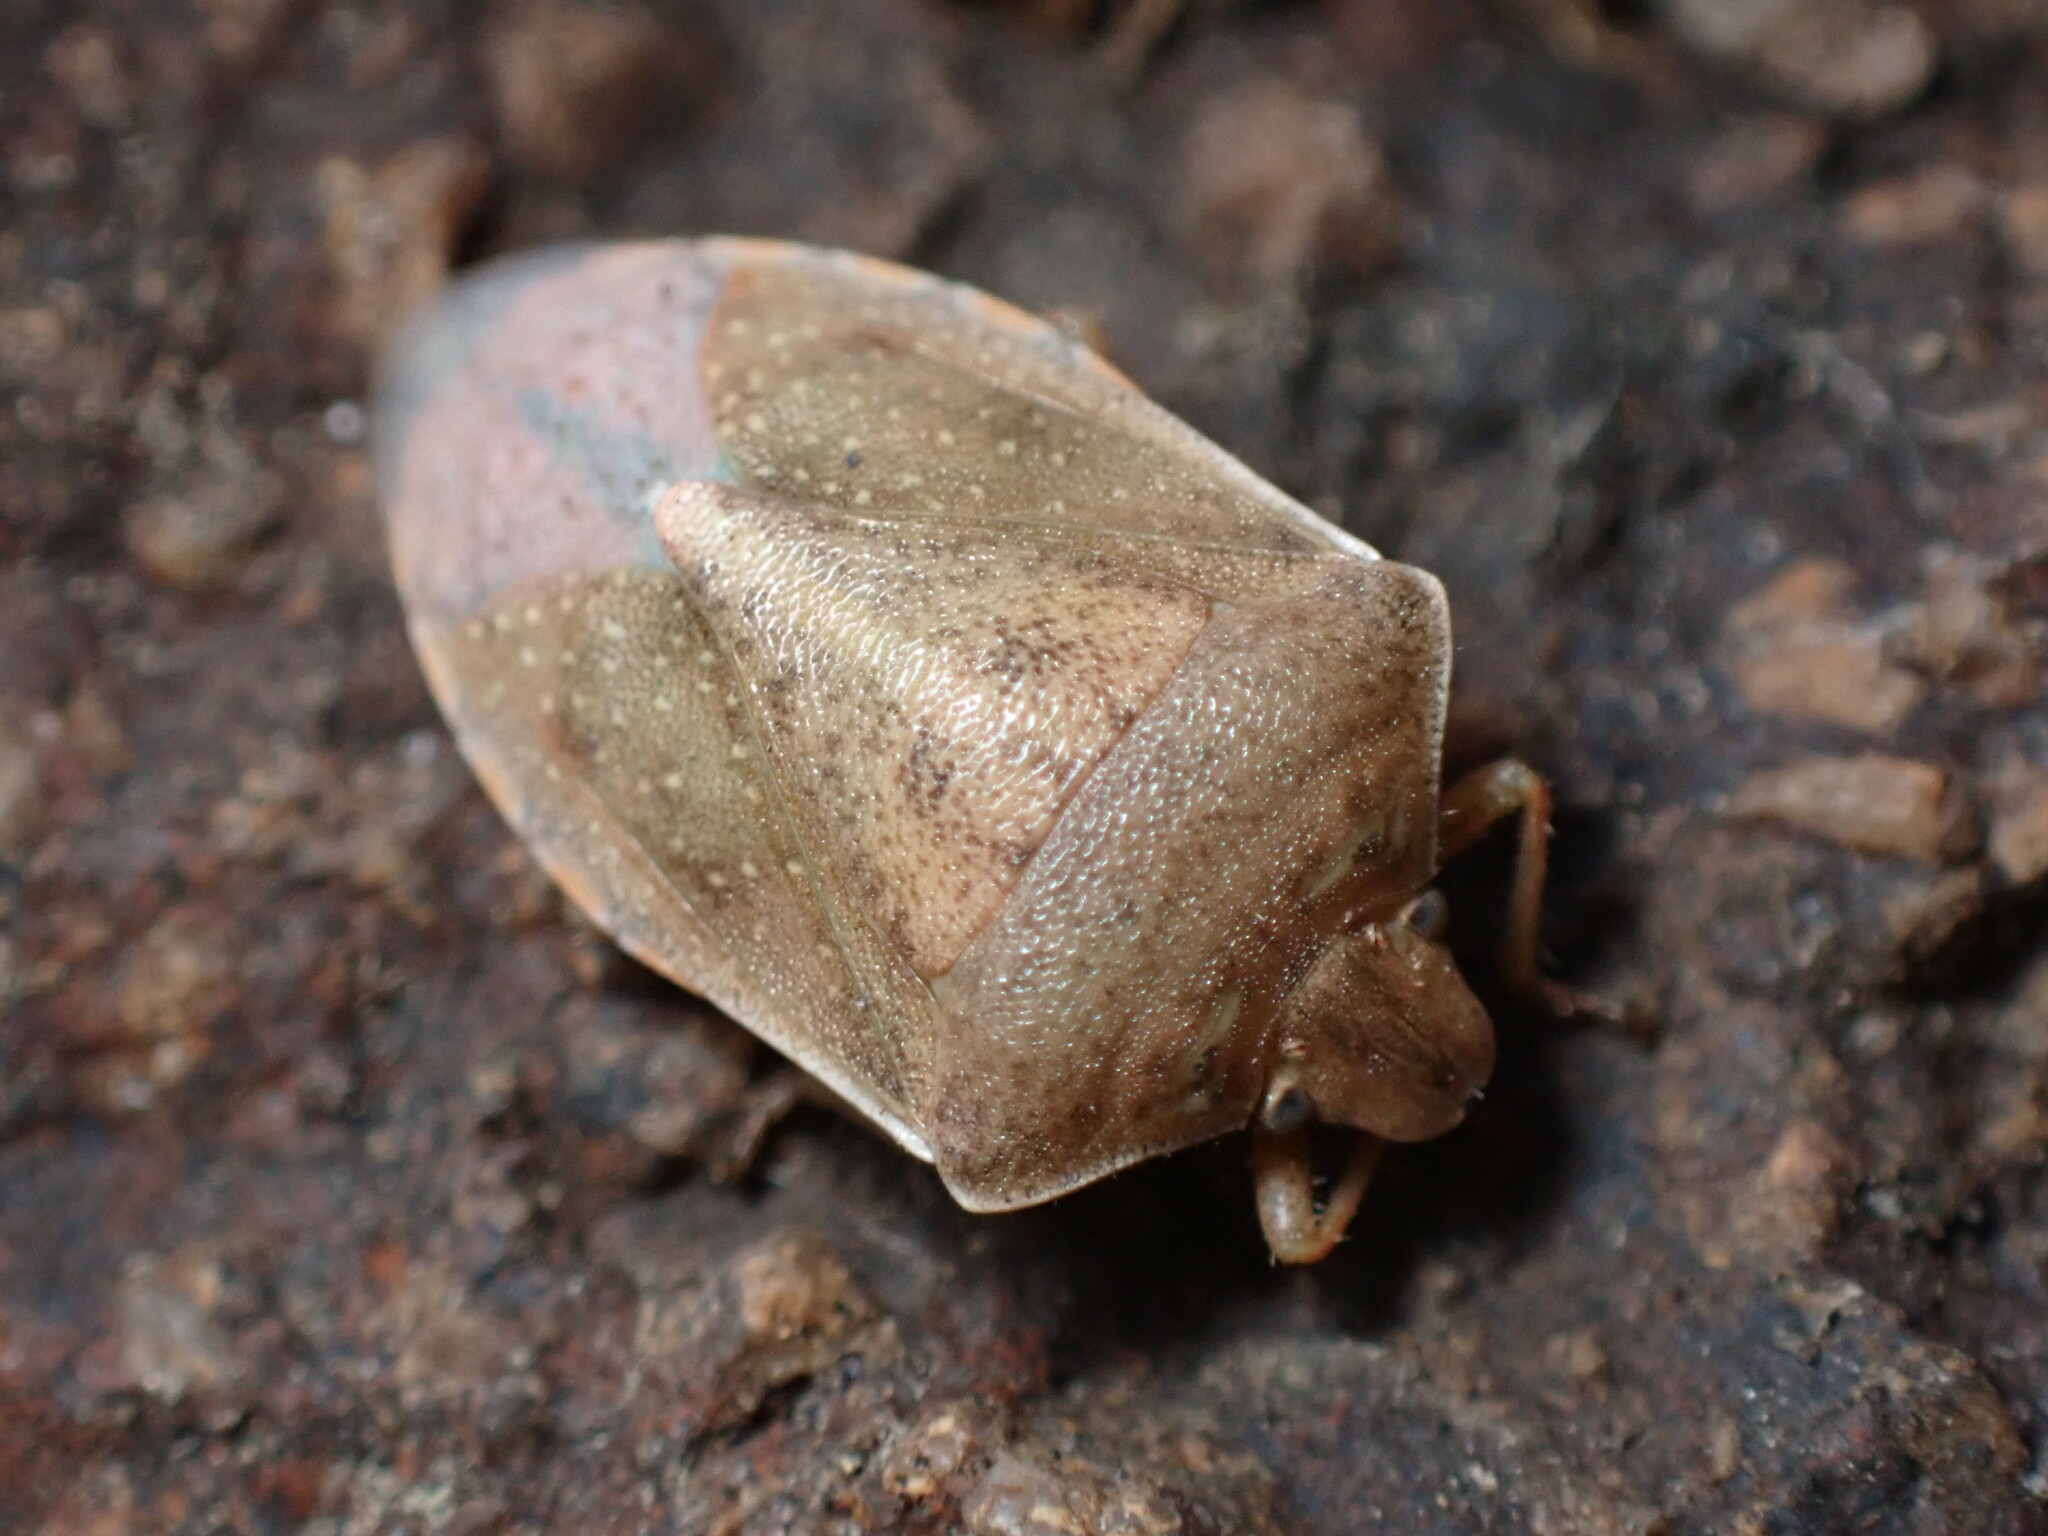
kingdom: Animalia
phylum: Arthropoda
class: Insecta
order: Hemiptera
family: Pentatomidae
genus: Thyanta
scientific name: Thyanta accerra
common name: Stink bug
